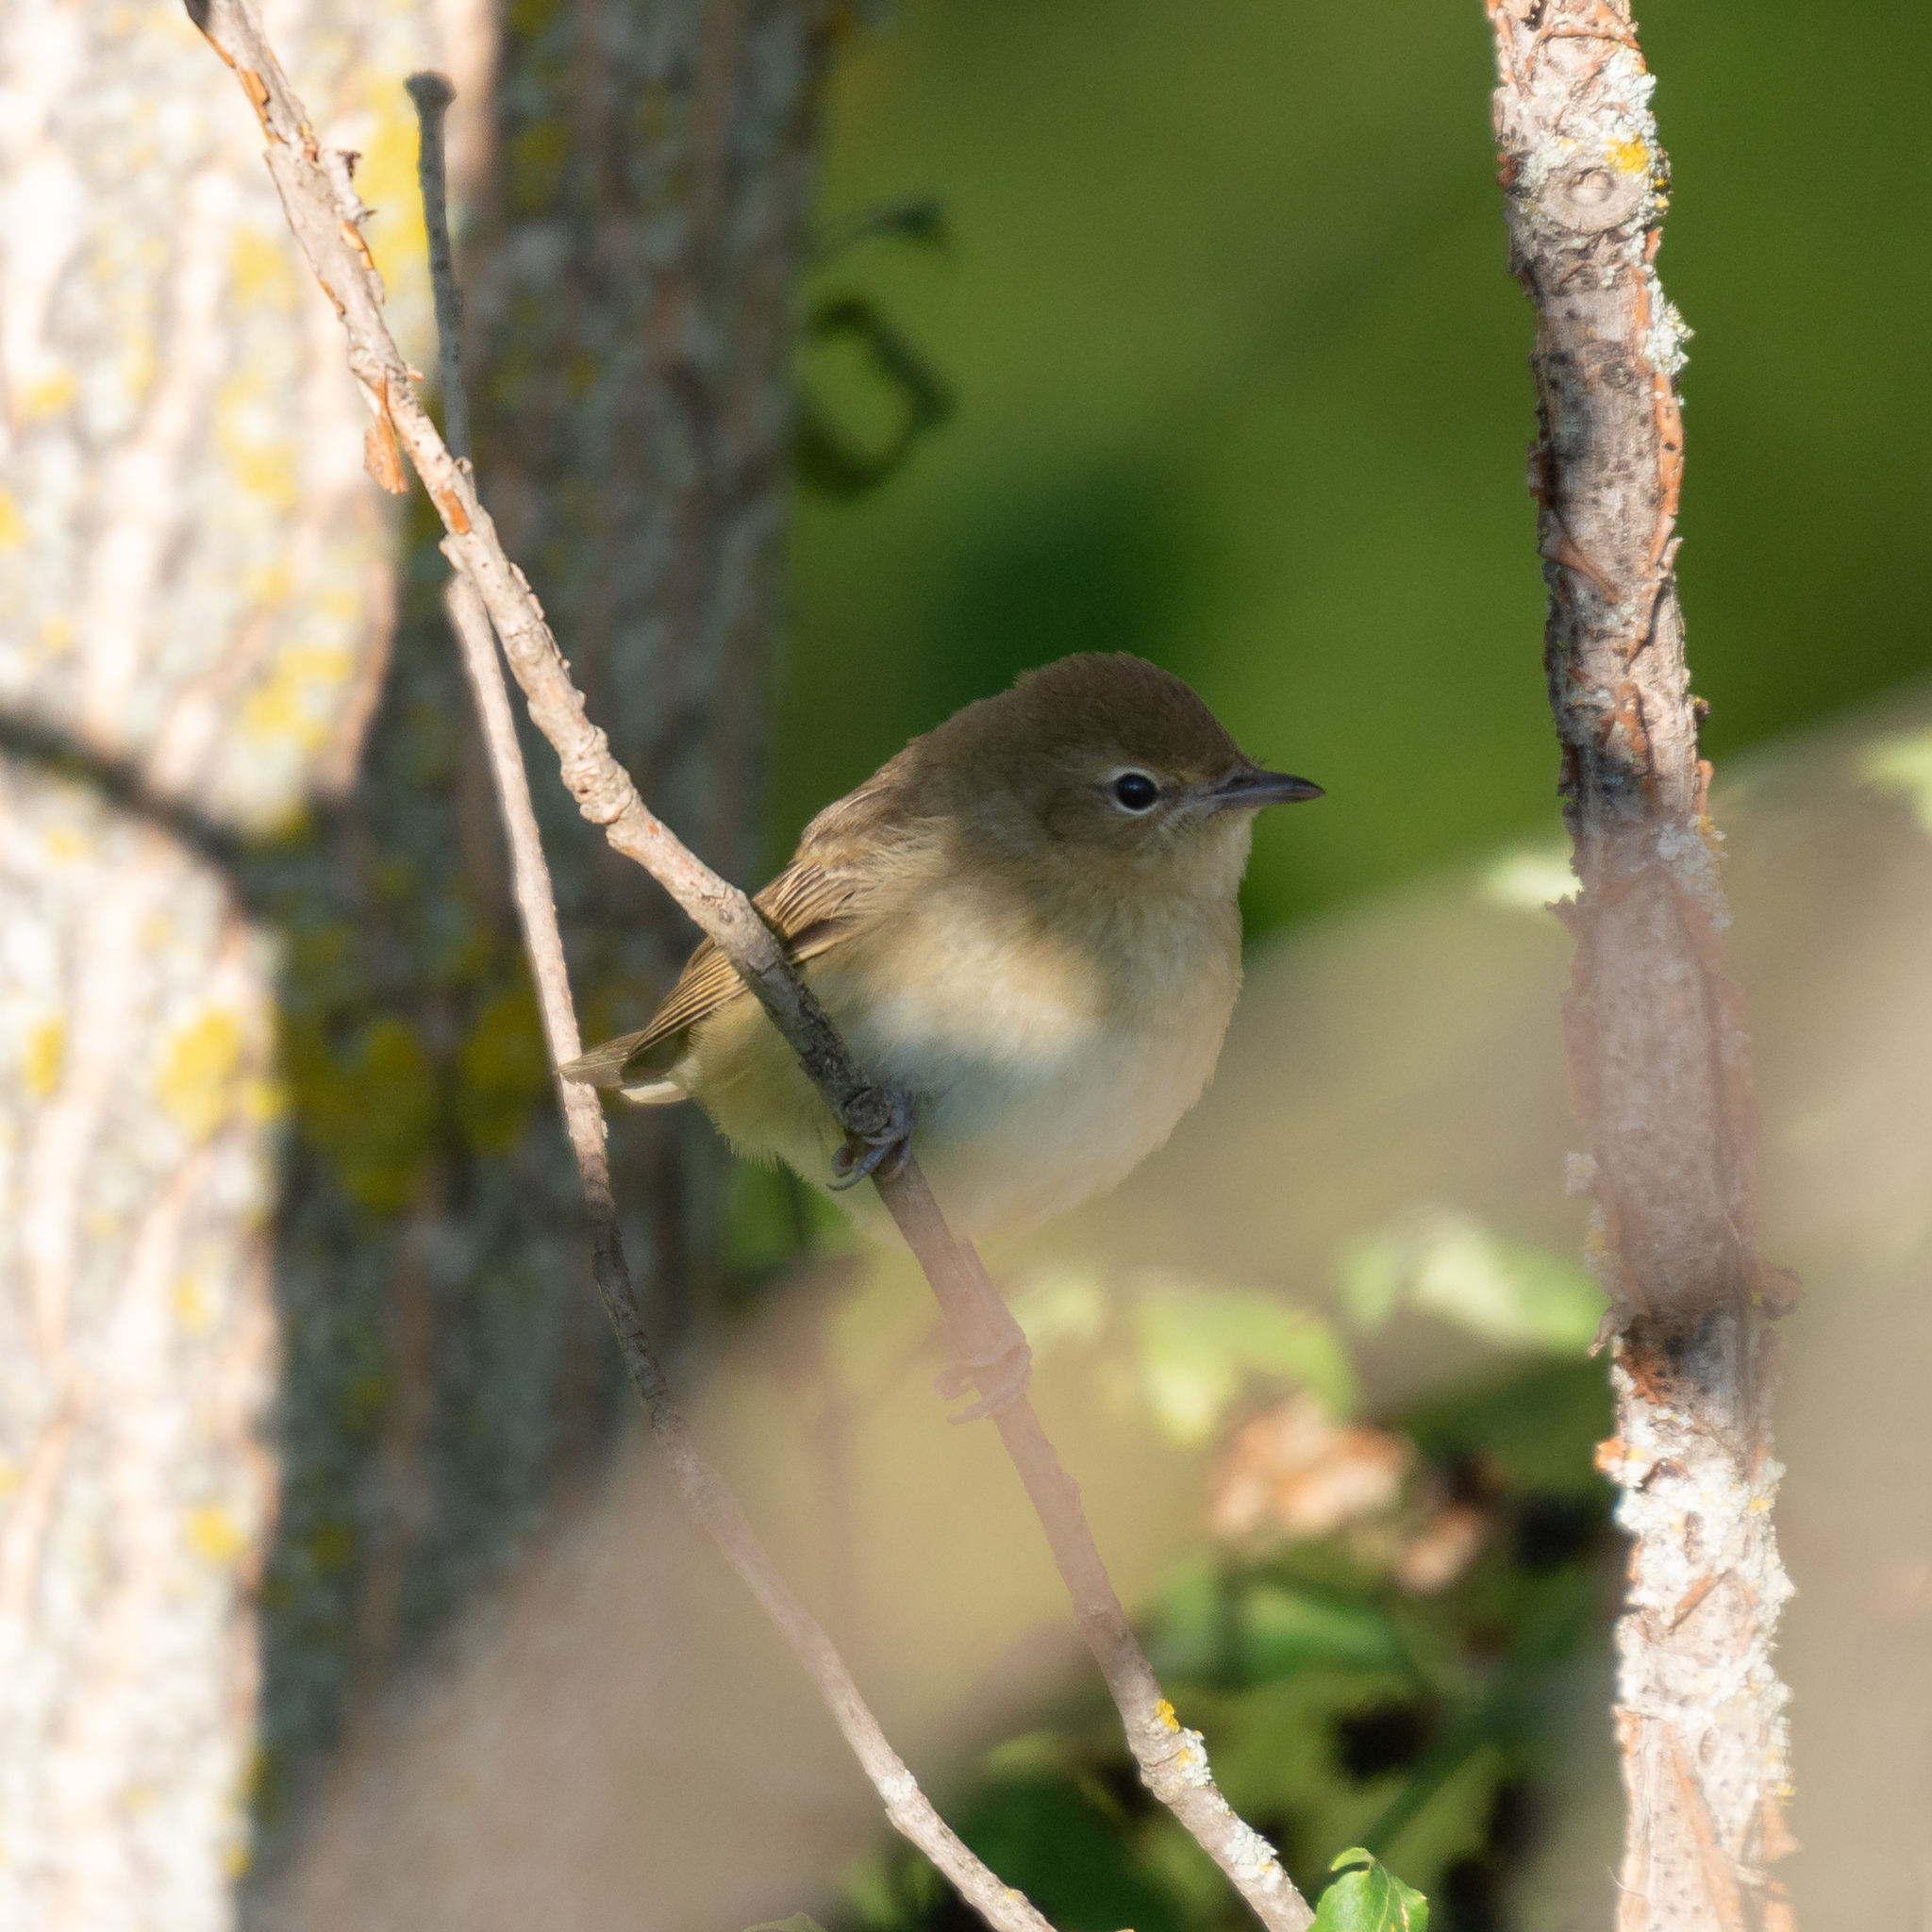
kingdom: Animalia
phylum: Chordata
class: Aves
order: Passeriformes
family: Sylviidae
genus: Sylvia
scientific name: Sylvia borin
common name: Garden warbler
